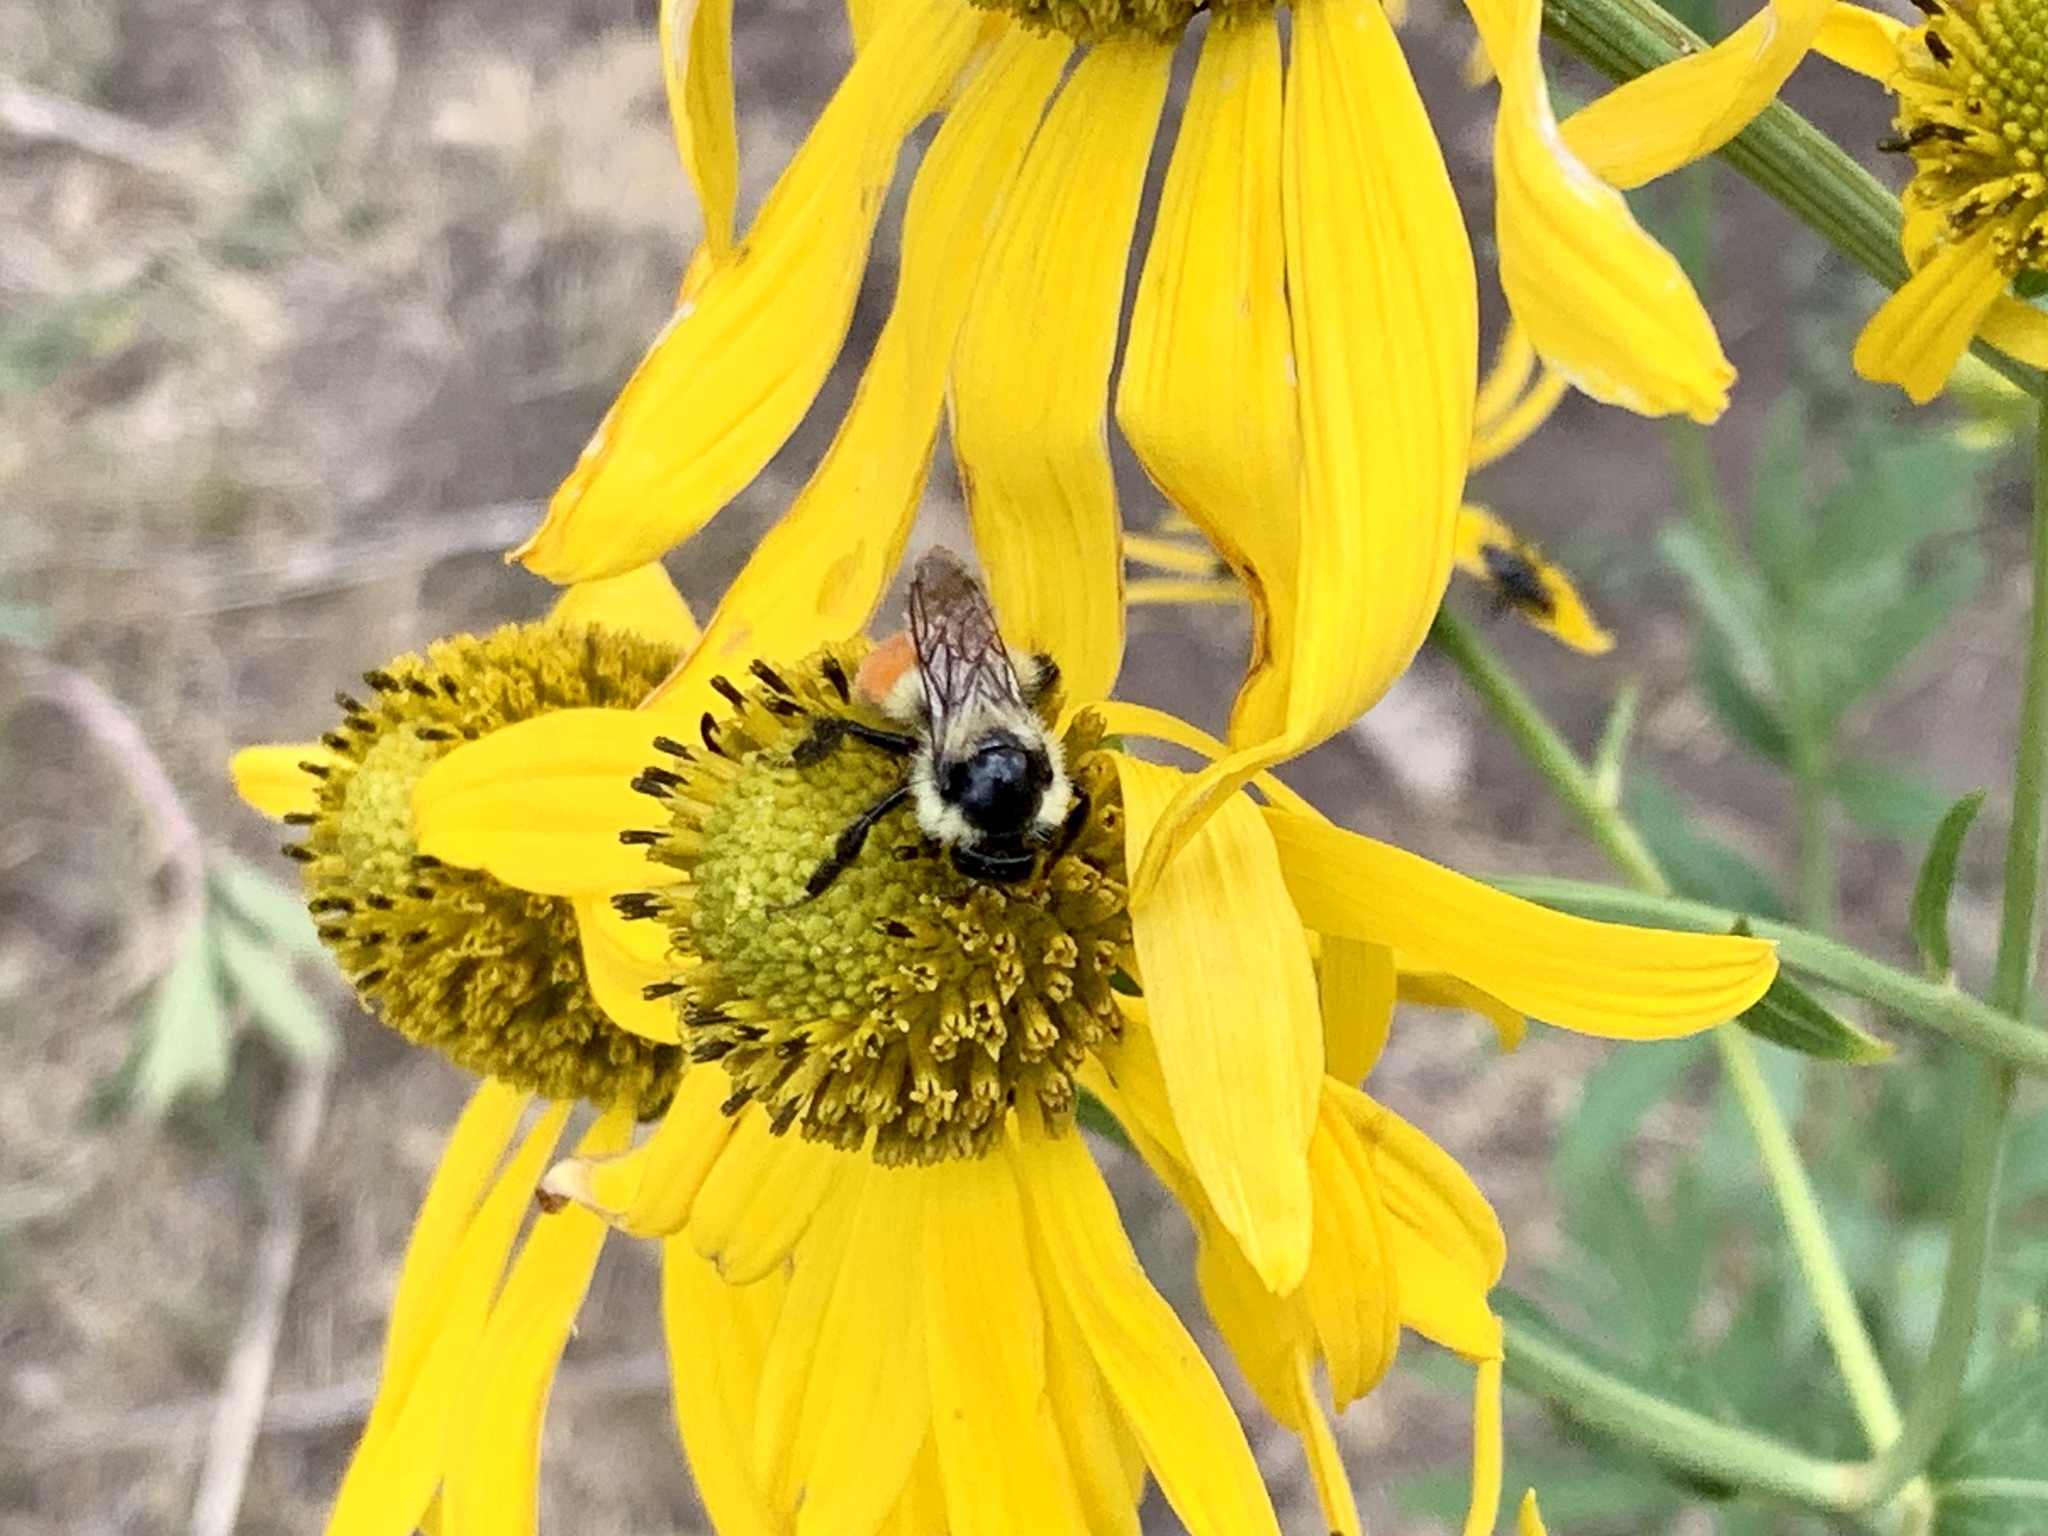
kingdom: Animalia
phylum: Arthropoda
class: Insecta
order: Hymenoptera
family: Apidae
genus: Bombus
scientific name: Bombus huntii
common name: Hunt bumble bee
